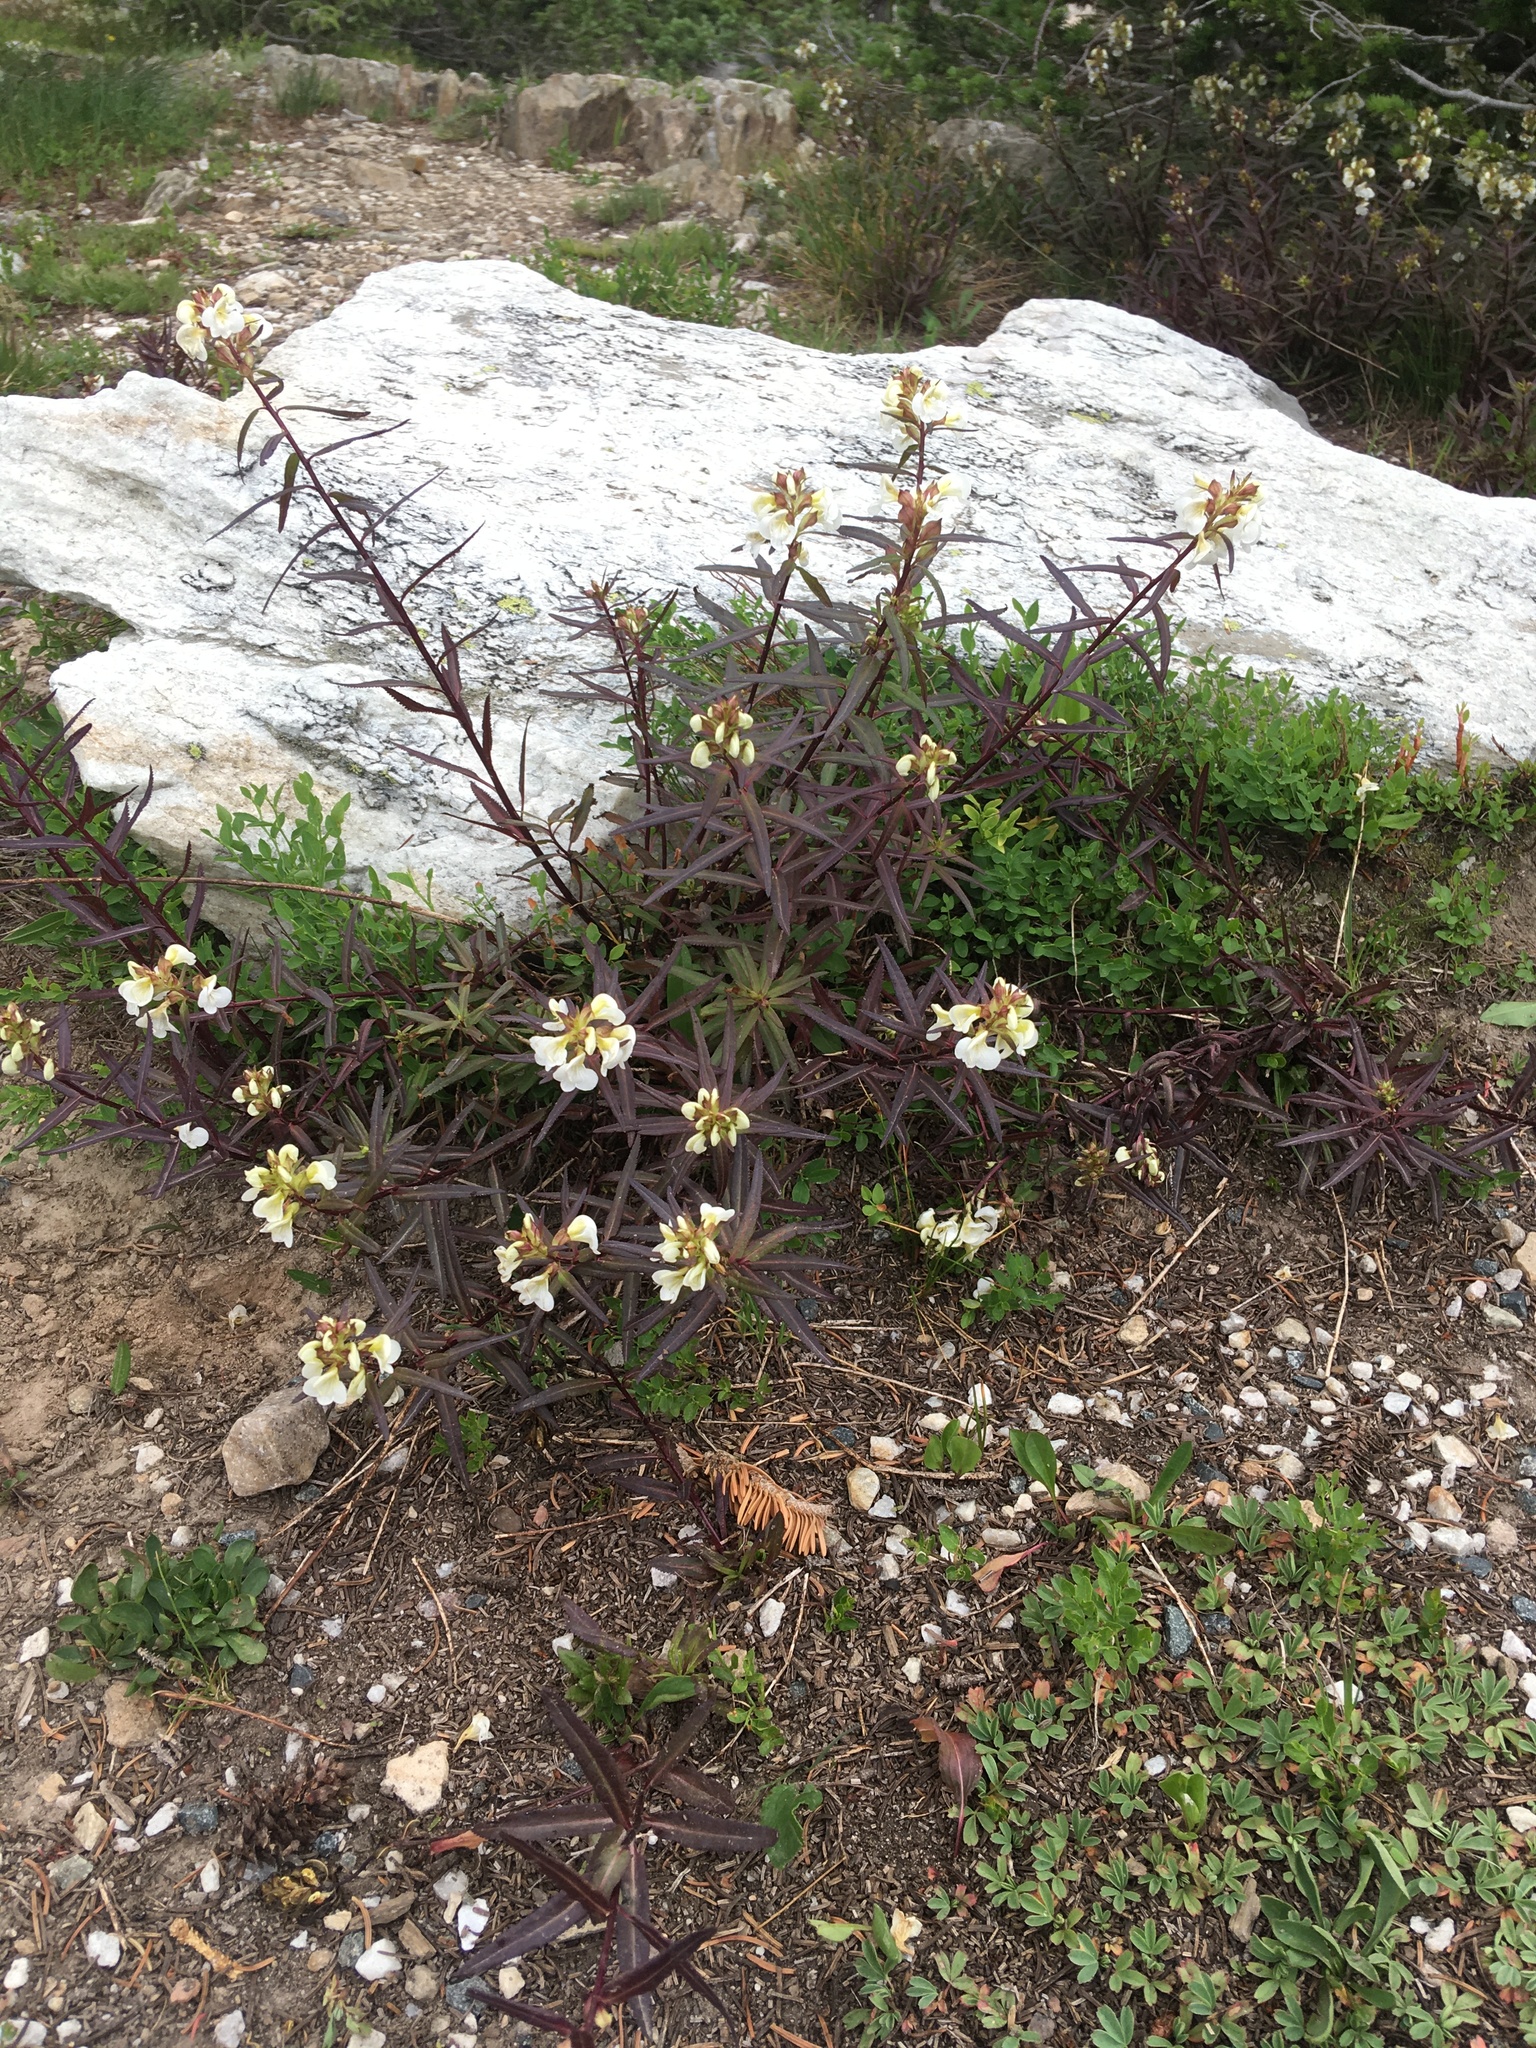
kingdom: Plantae
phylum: Tracheophyta
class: Magnoliopsida
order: Lamiales
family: Orobanchaceae
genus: Pedicularis
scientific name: Pedicularis racemosa
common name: Leafy lousewort
